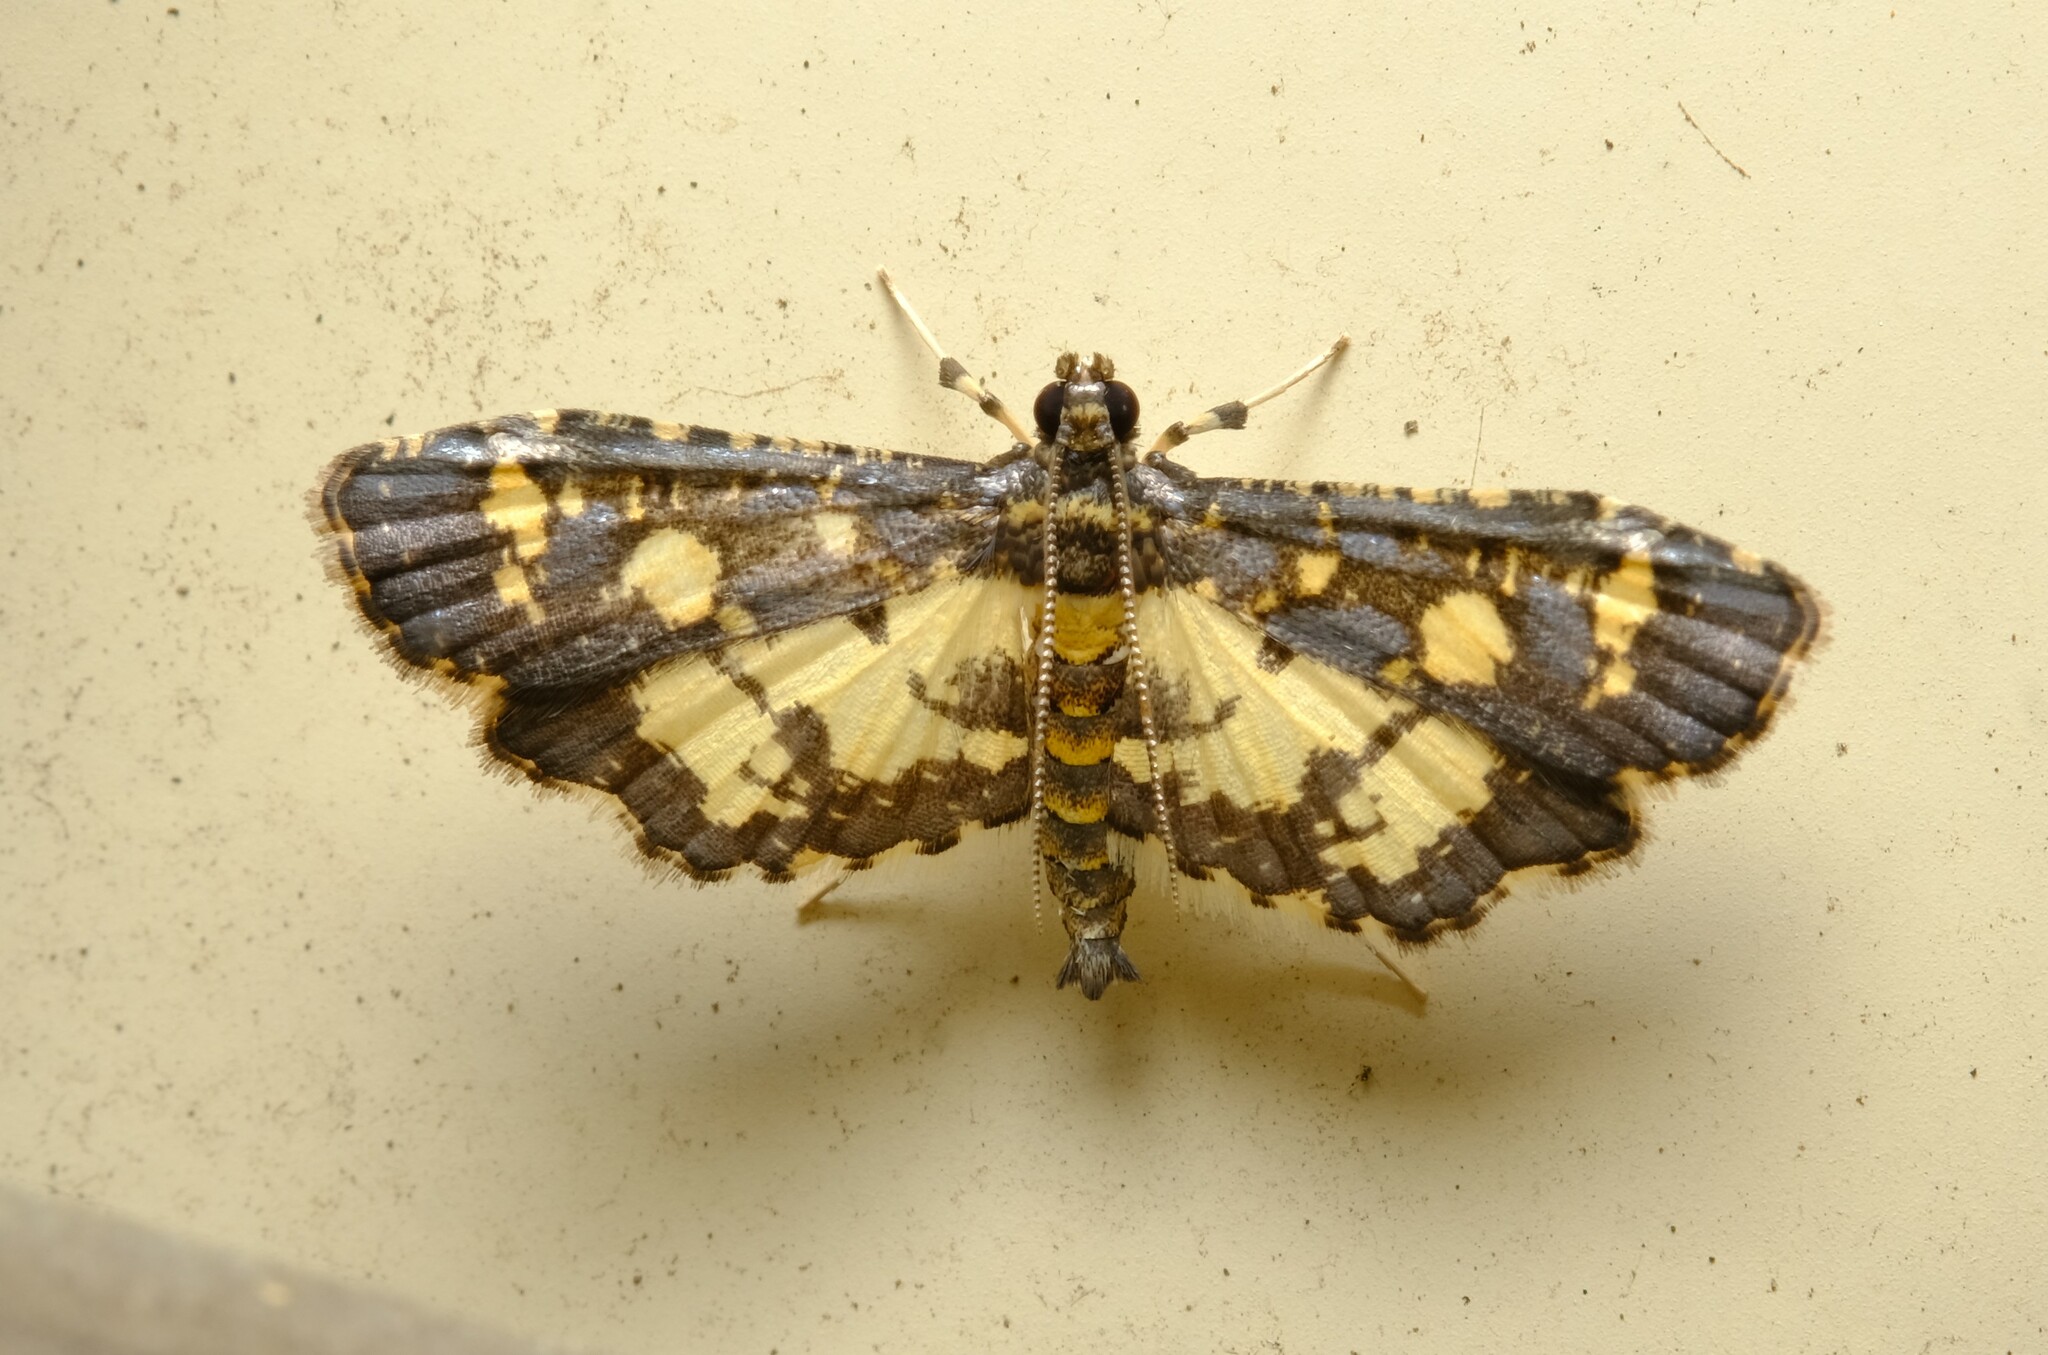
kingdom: Animalia
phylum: Arthropoda
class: Insecta
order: Lepidoptera
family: Crambidae
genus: Eurrhyparodes
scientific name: Eurrhyparodes bracteolalis
